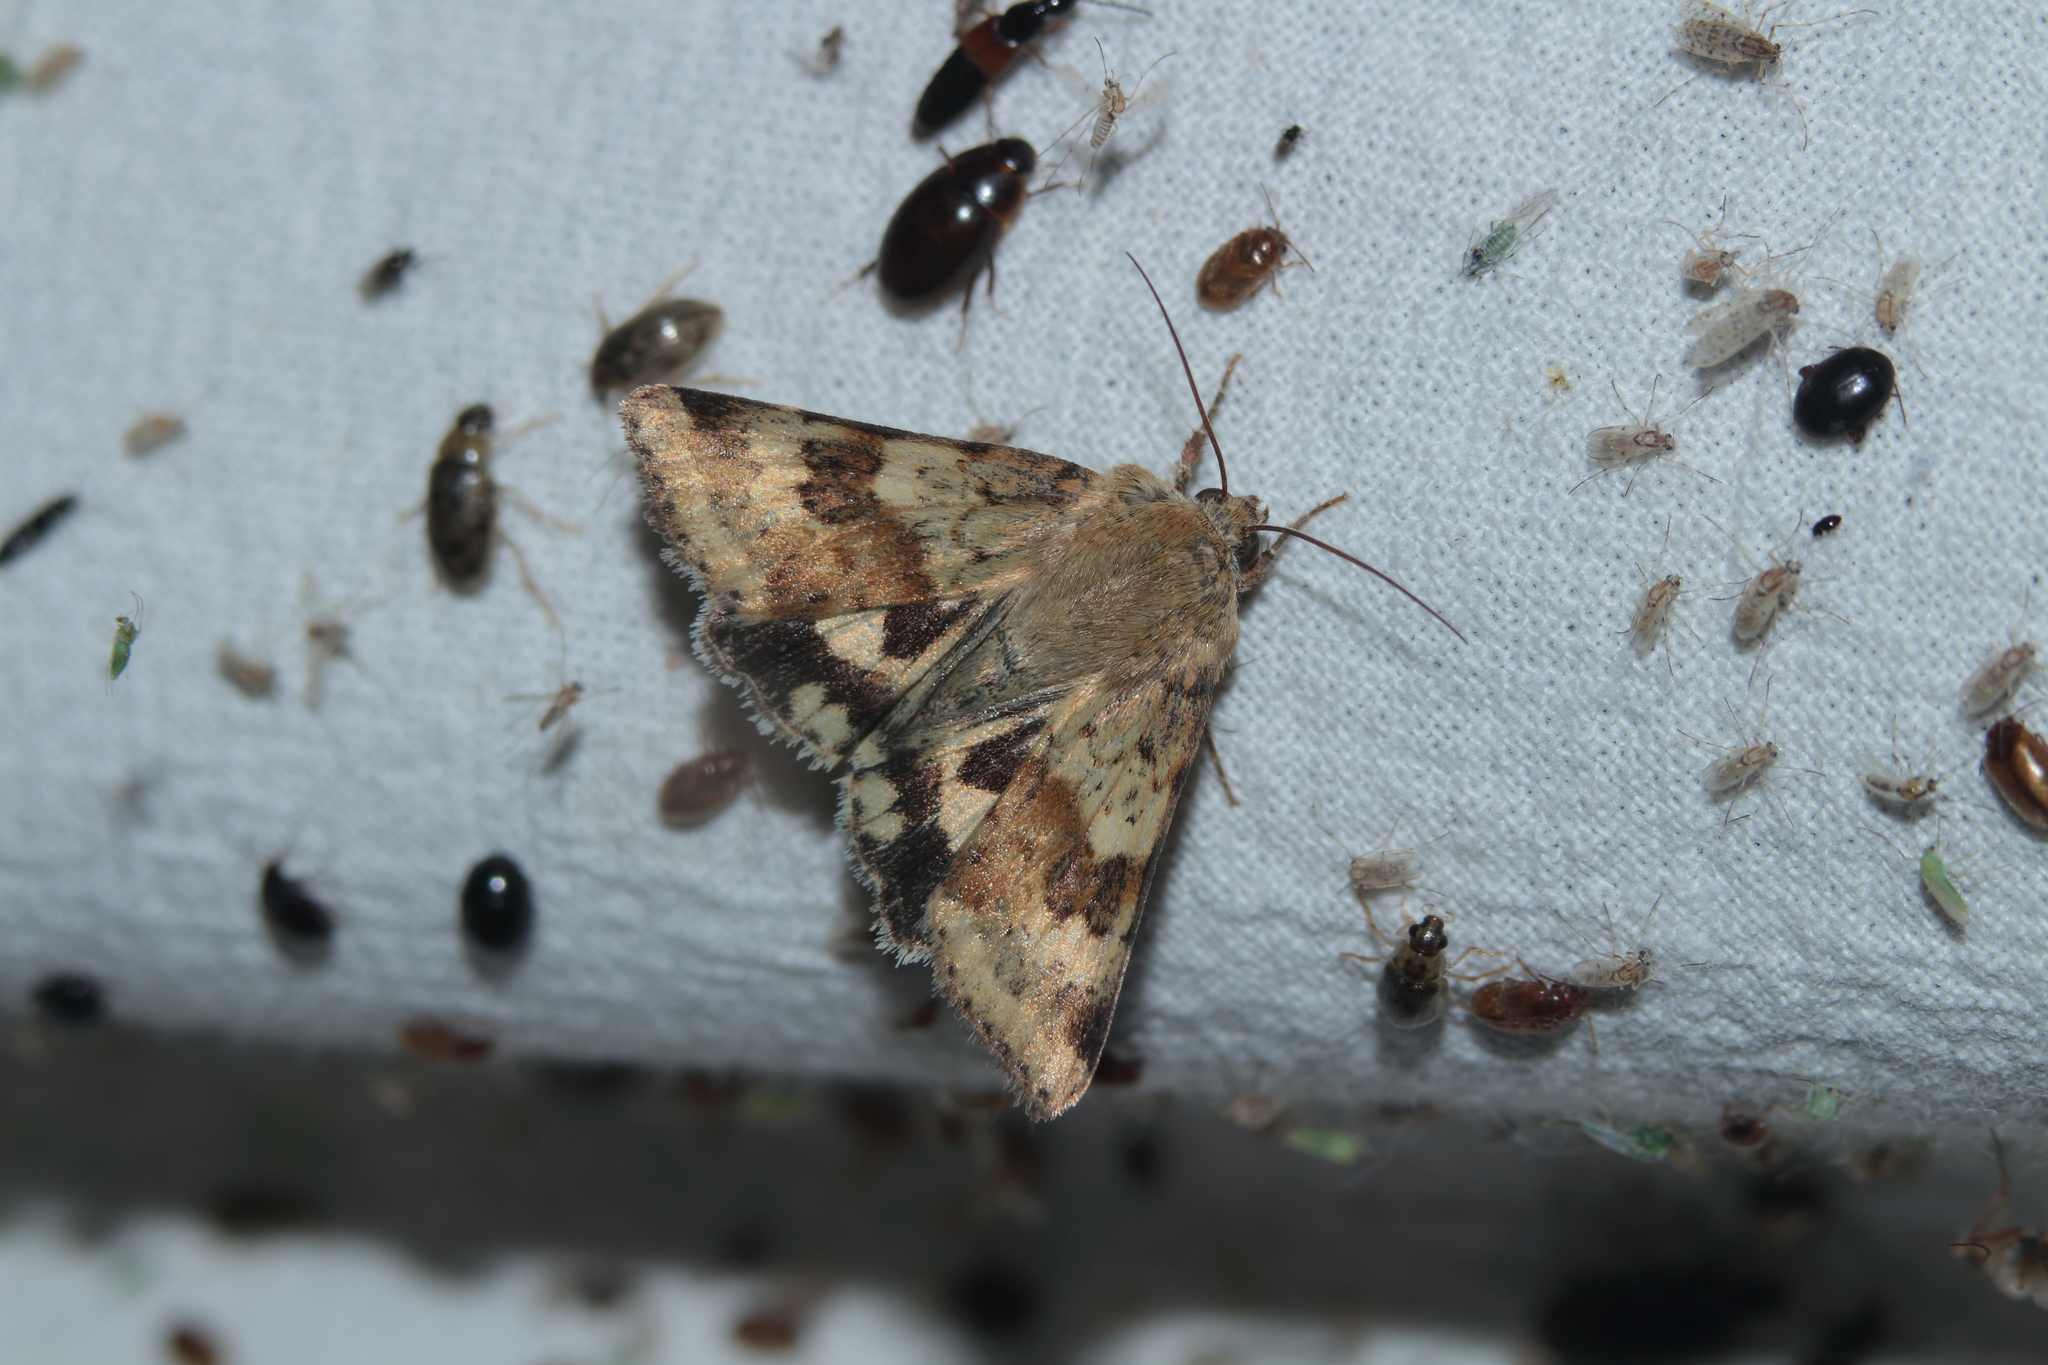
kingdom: Animalia
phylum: Arthropoda
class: Insecta
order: Lepidoptera
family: Noctuidae
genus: Heliothis
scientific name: Heliothis viriplaca
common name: Marbled clover
